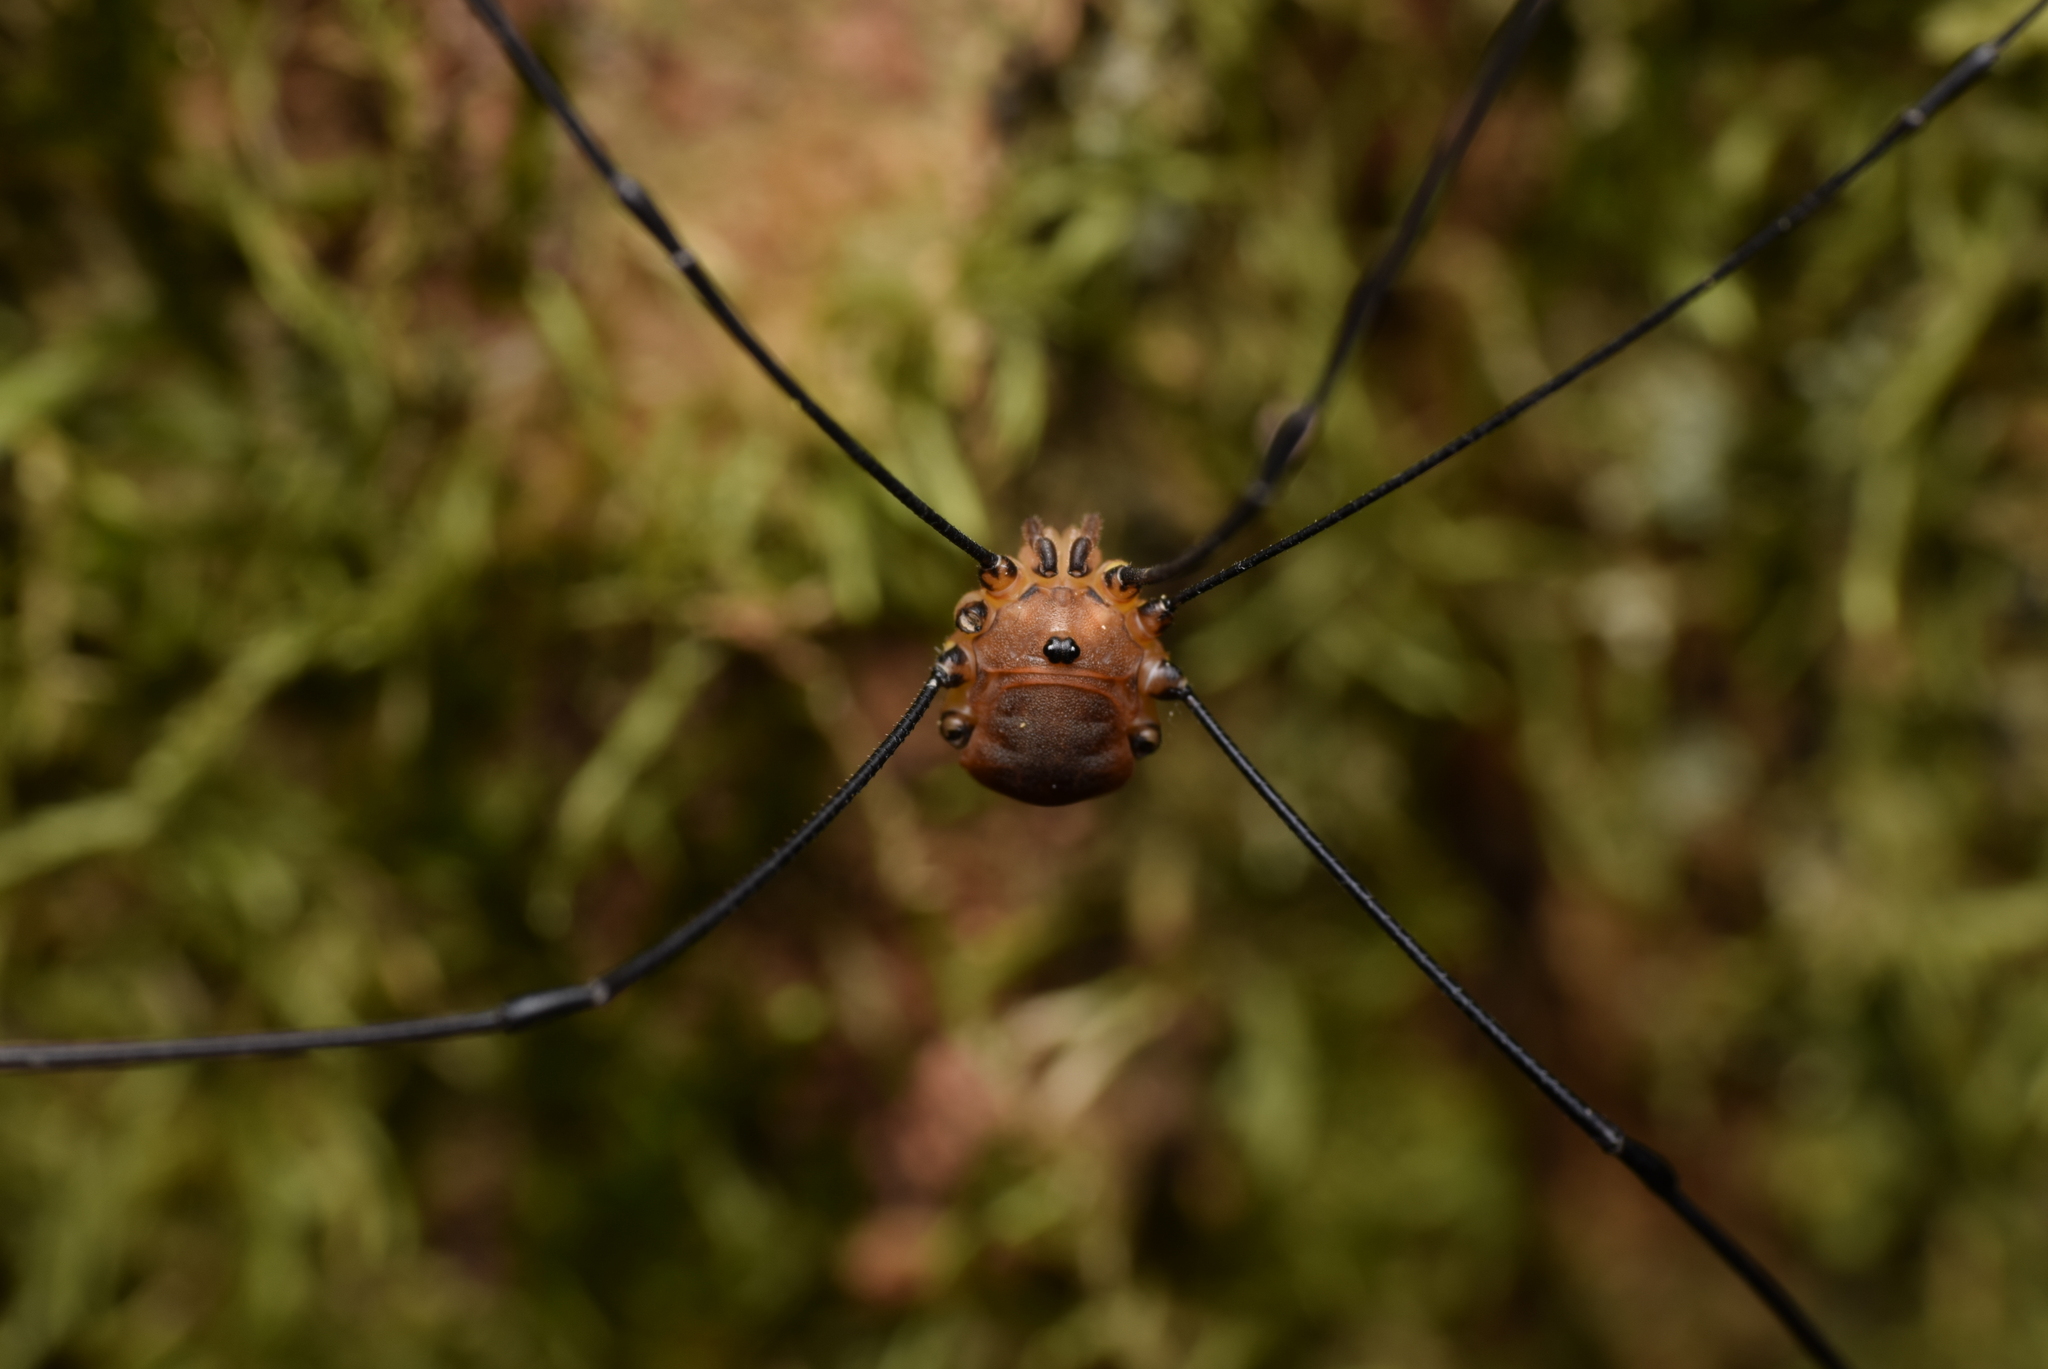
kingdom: Animalia
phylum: Arthropoda
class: Arachnida
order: Opiliones
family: Sclerosomatidae
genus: Leiobunum
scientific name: Leiobunum rotundum
